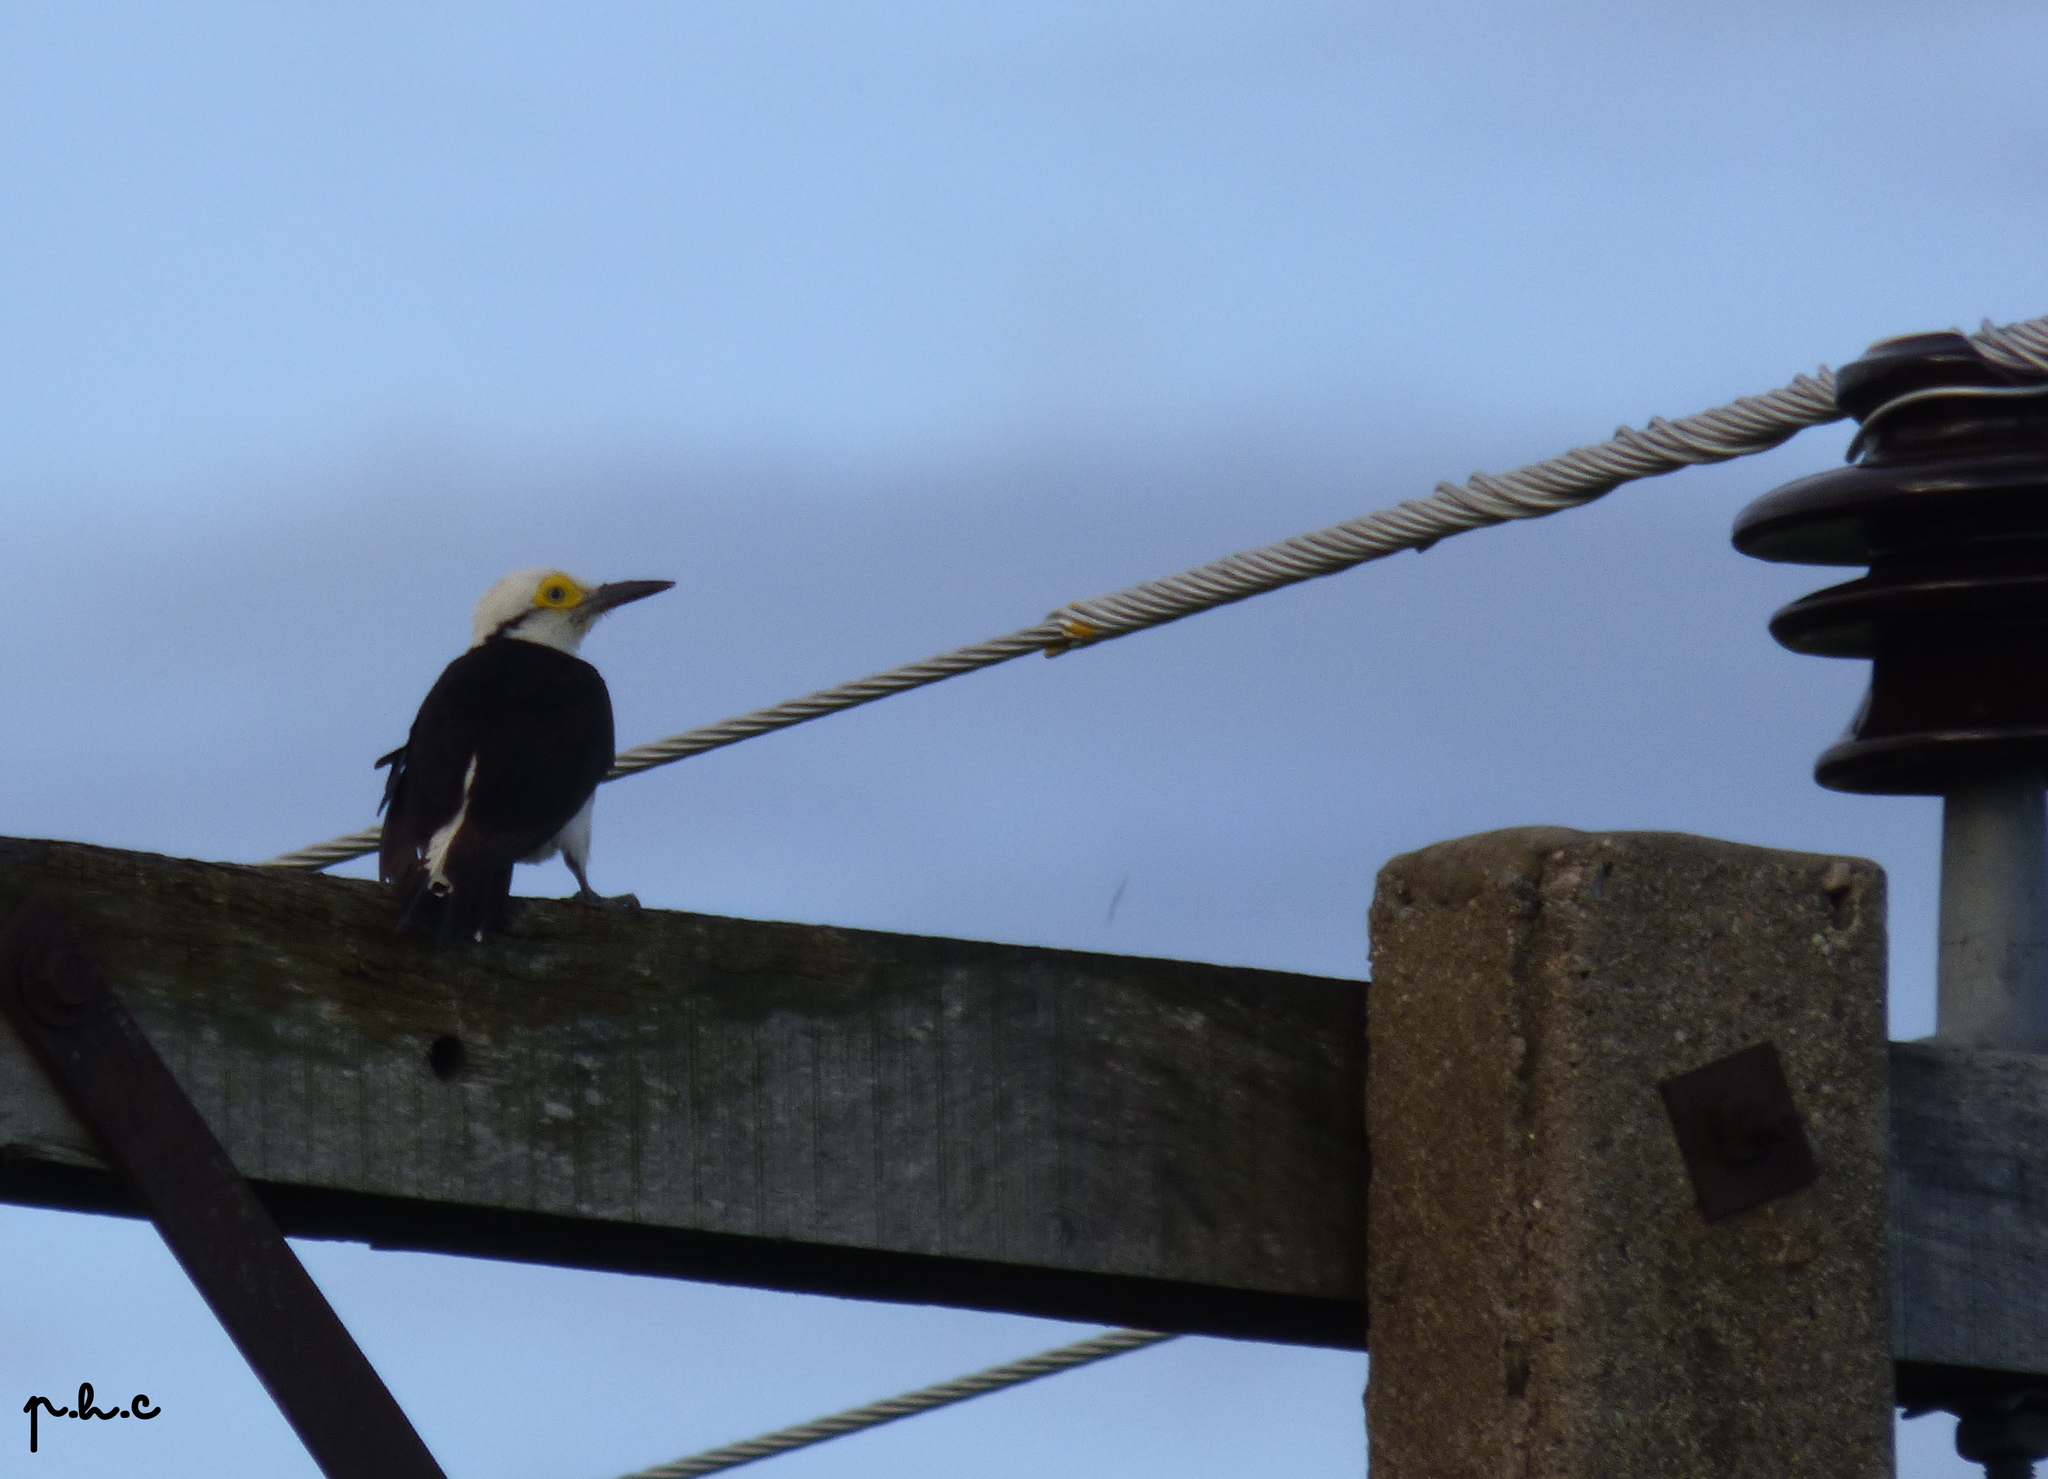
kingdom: Animalia
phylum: Chordata
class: Aves
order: Piciformes
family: Picidae
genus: Melanerpes
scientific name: Melanerpes candidus
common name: White woodpecker
